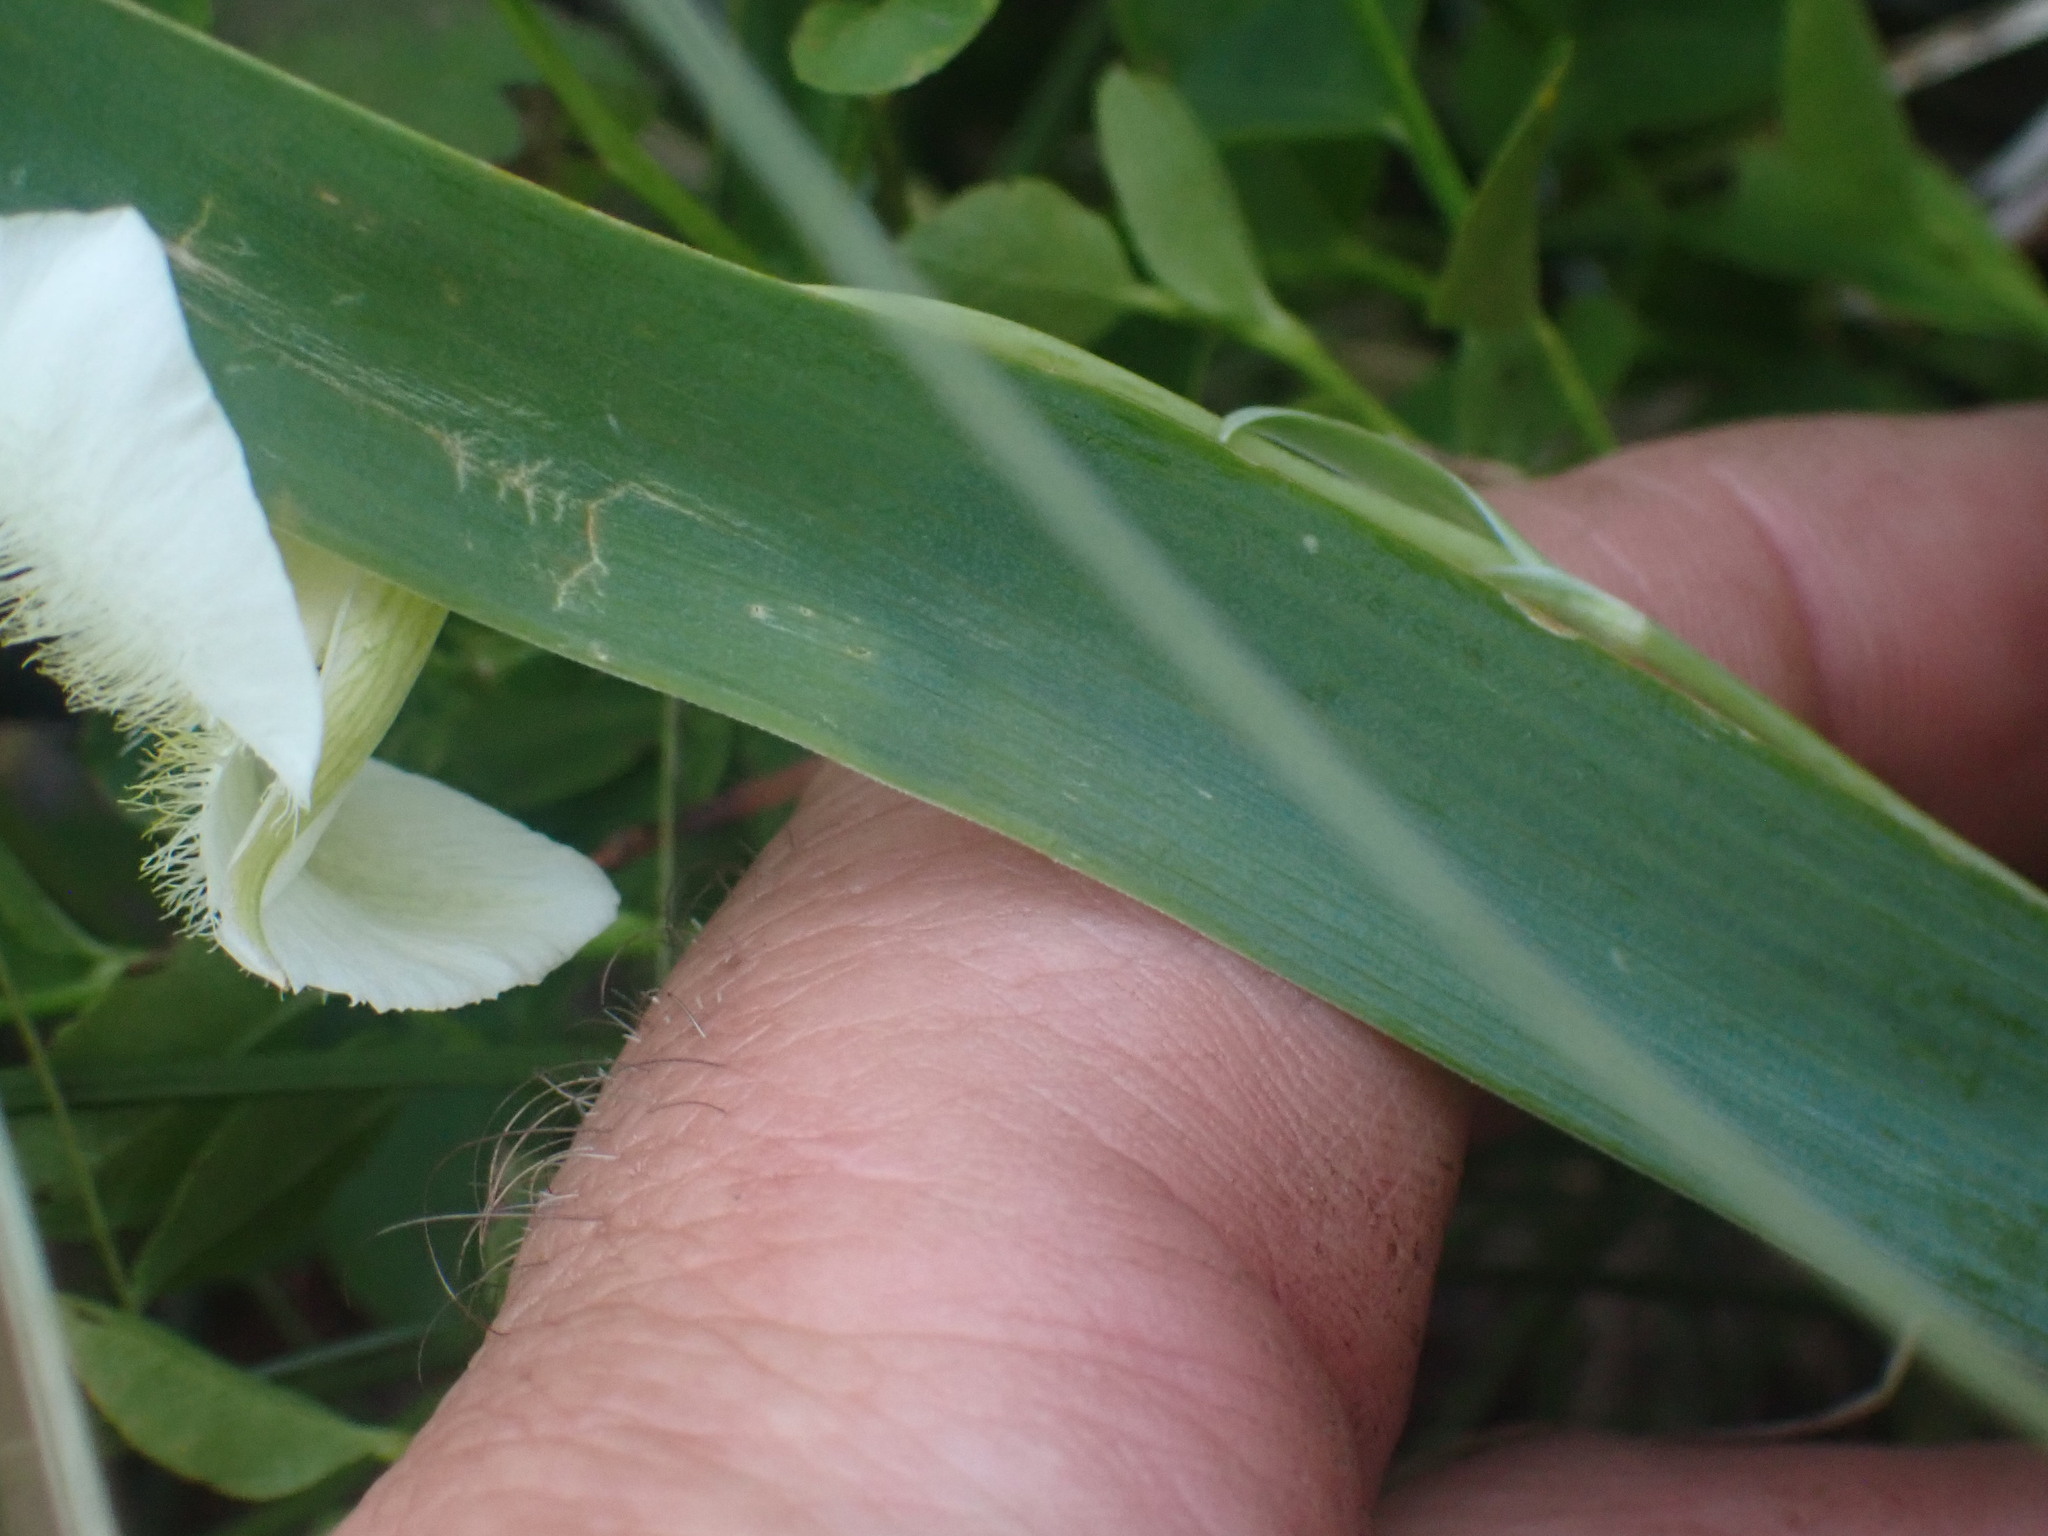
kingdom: Plantae
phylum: Tracheophyta
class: Liliopsida
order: Liliales
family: Liliaceae
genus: Calochortus
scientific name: Calochortus apiculatus
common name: Baker's mariposa lily
